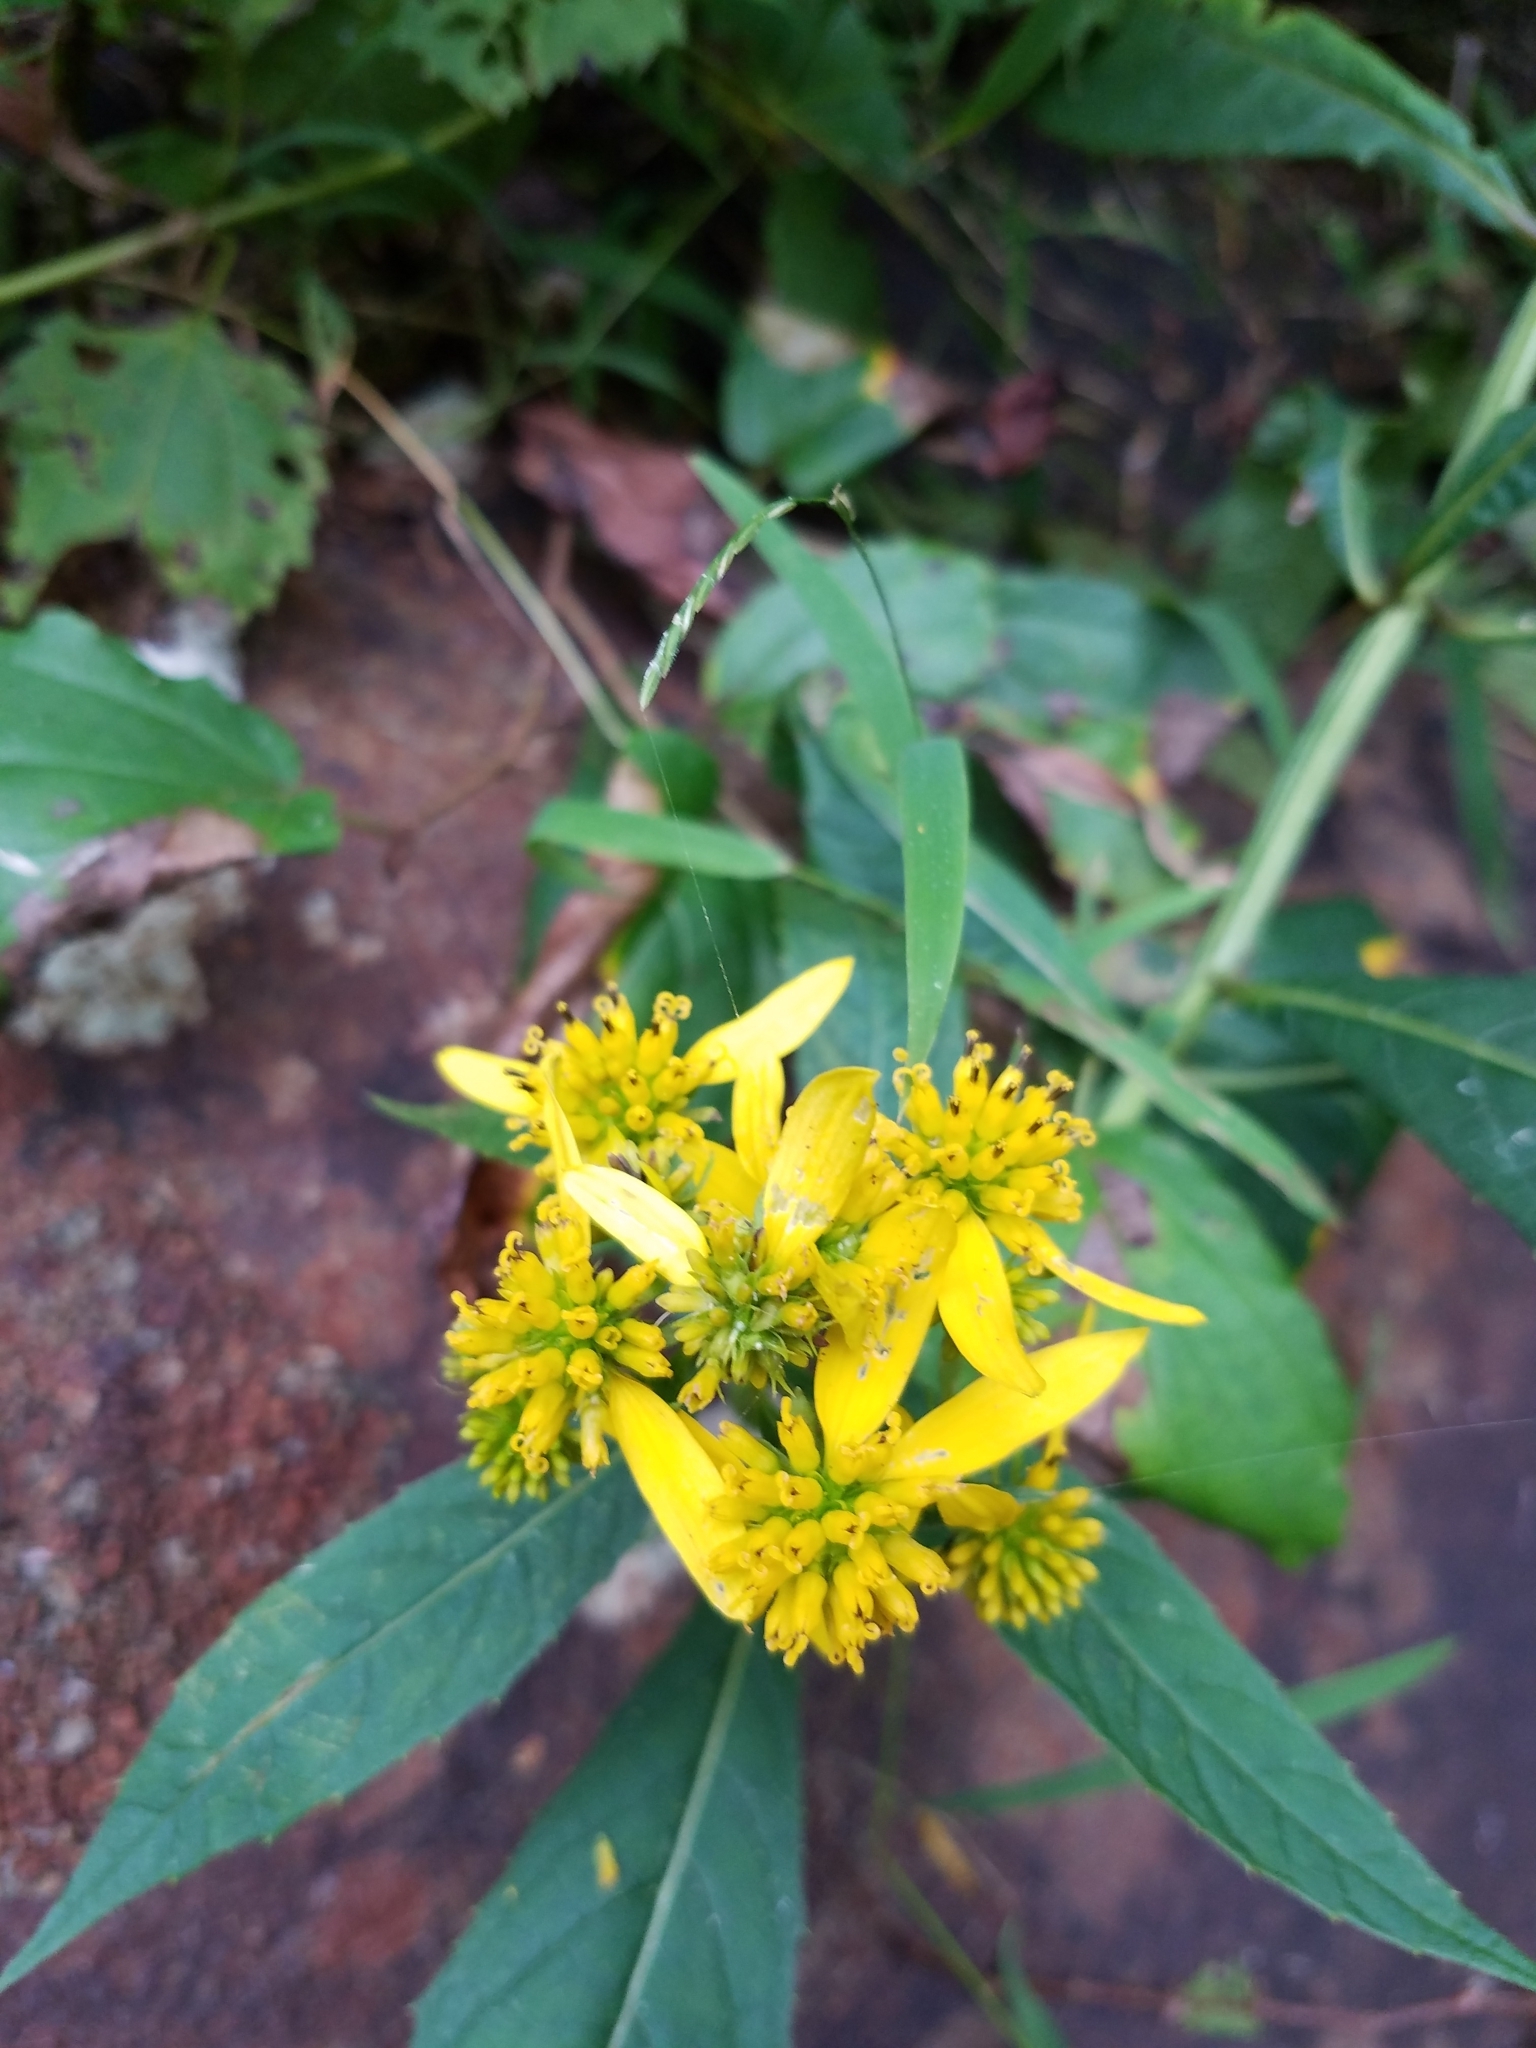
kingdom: Plantae
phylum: Tracheophyta
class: Magnoliopsida
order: Asterales
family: Asteraceae
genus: Verbesina
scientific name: Verbesina alternifolia
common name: Wingstem
